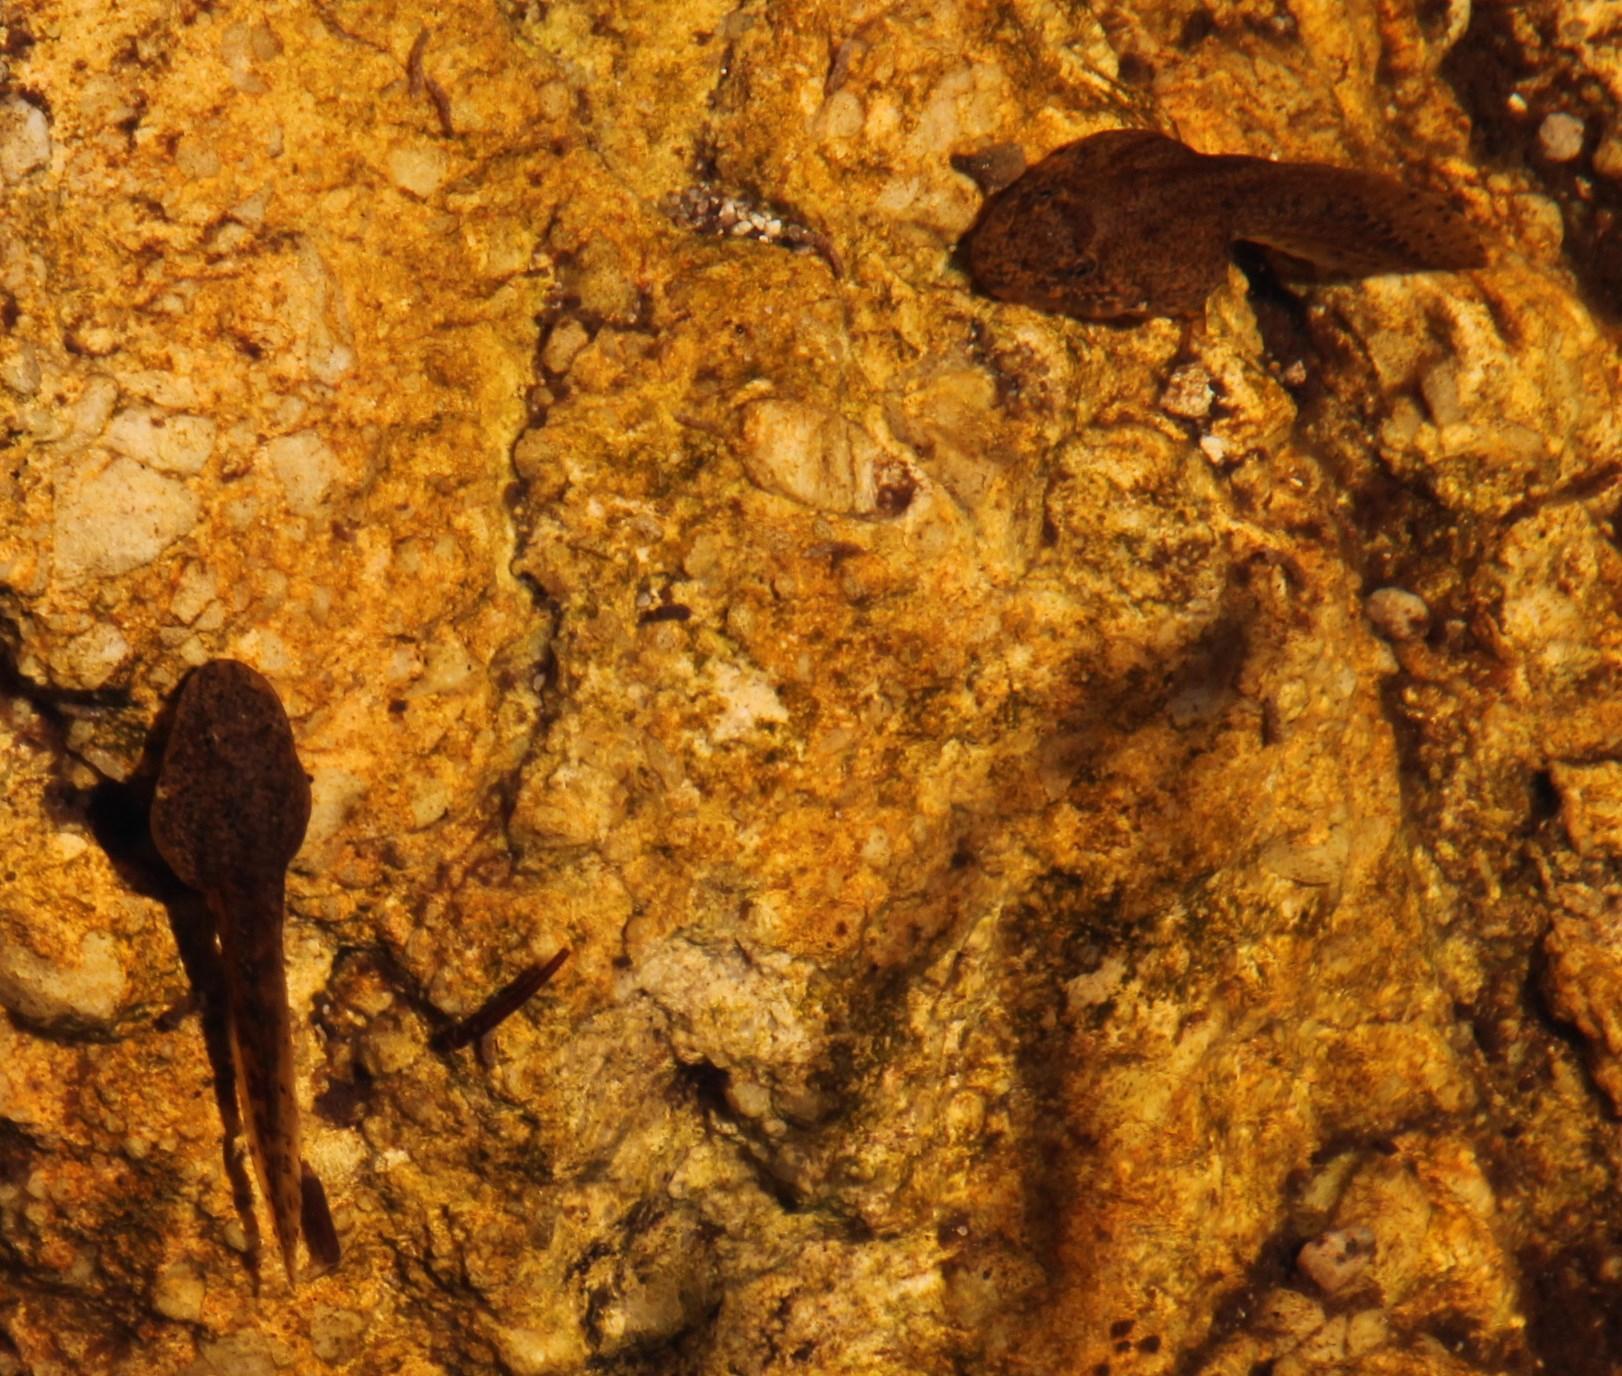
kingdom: Animalia
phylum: Chordata
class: Amphibia
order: Anura
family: Pyxicephalidae
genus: Amietia
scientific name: Amietia fuscigula
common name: Cape rana
